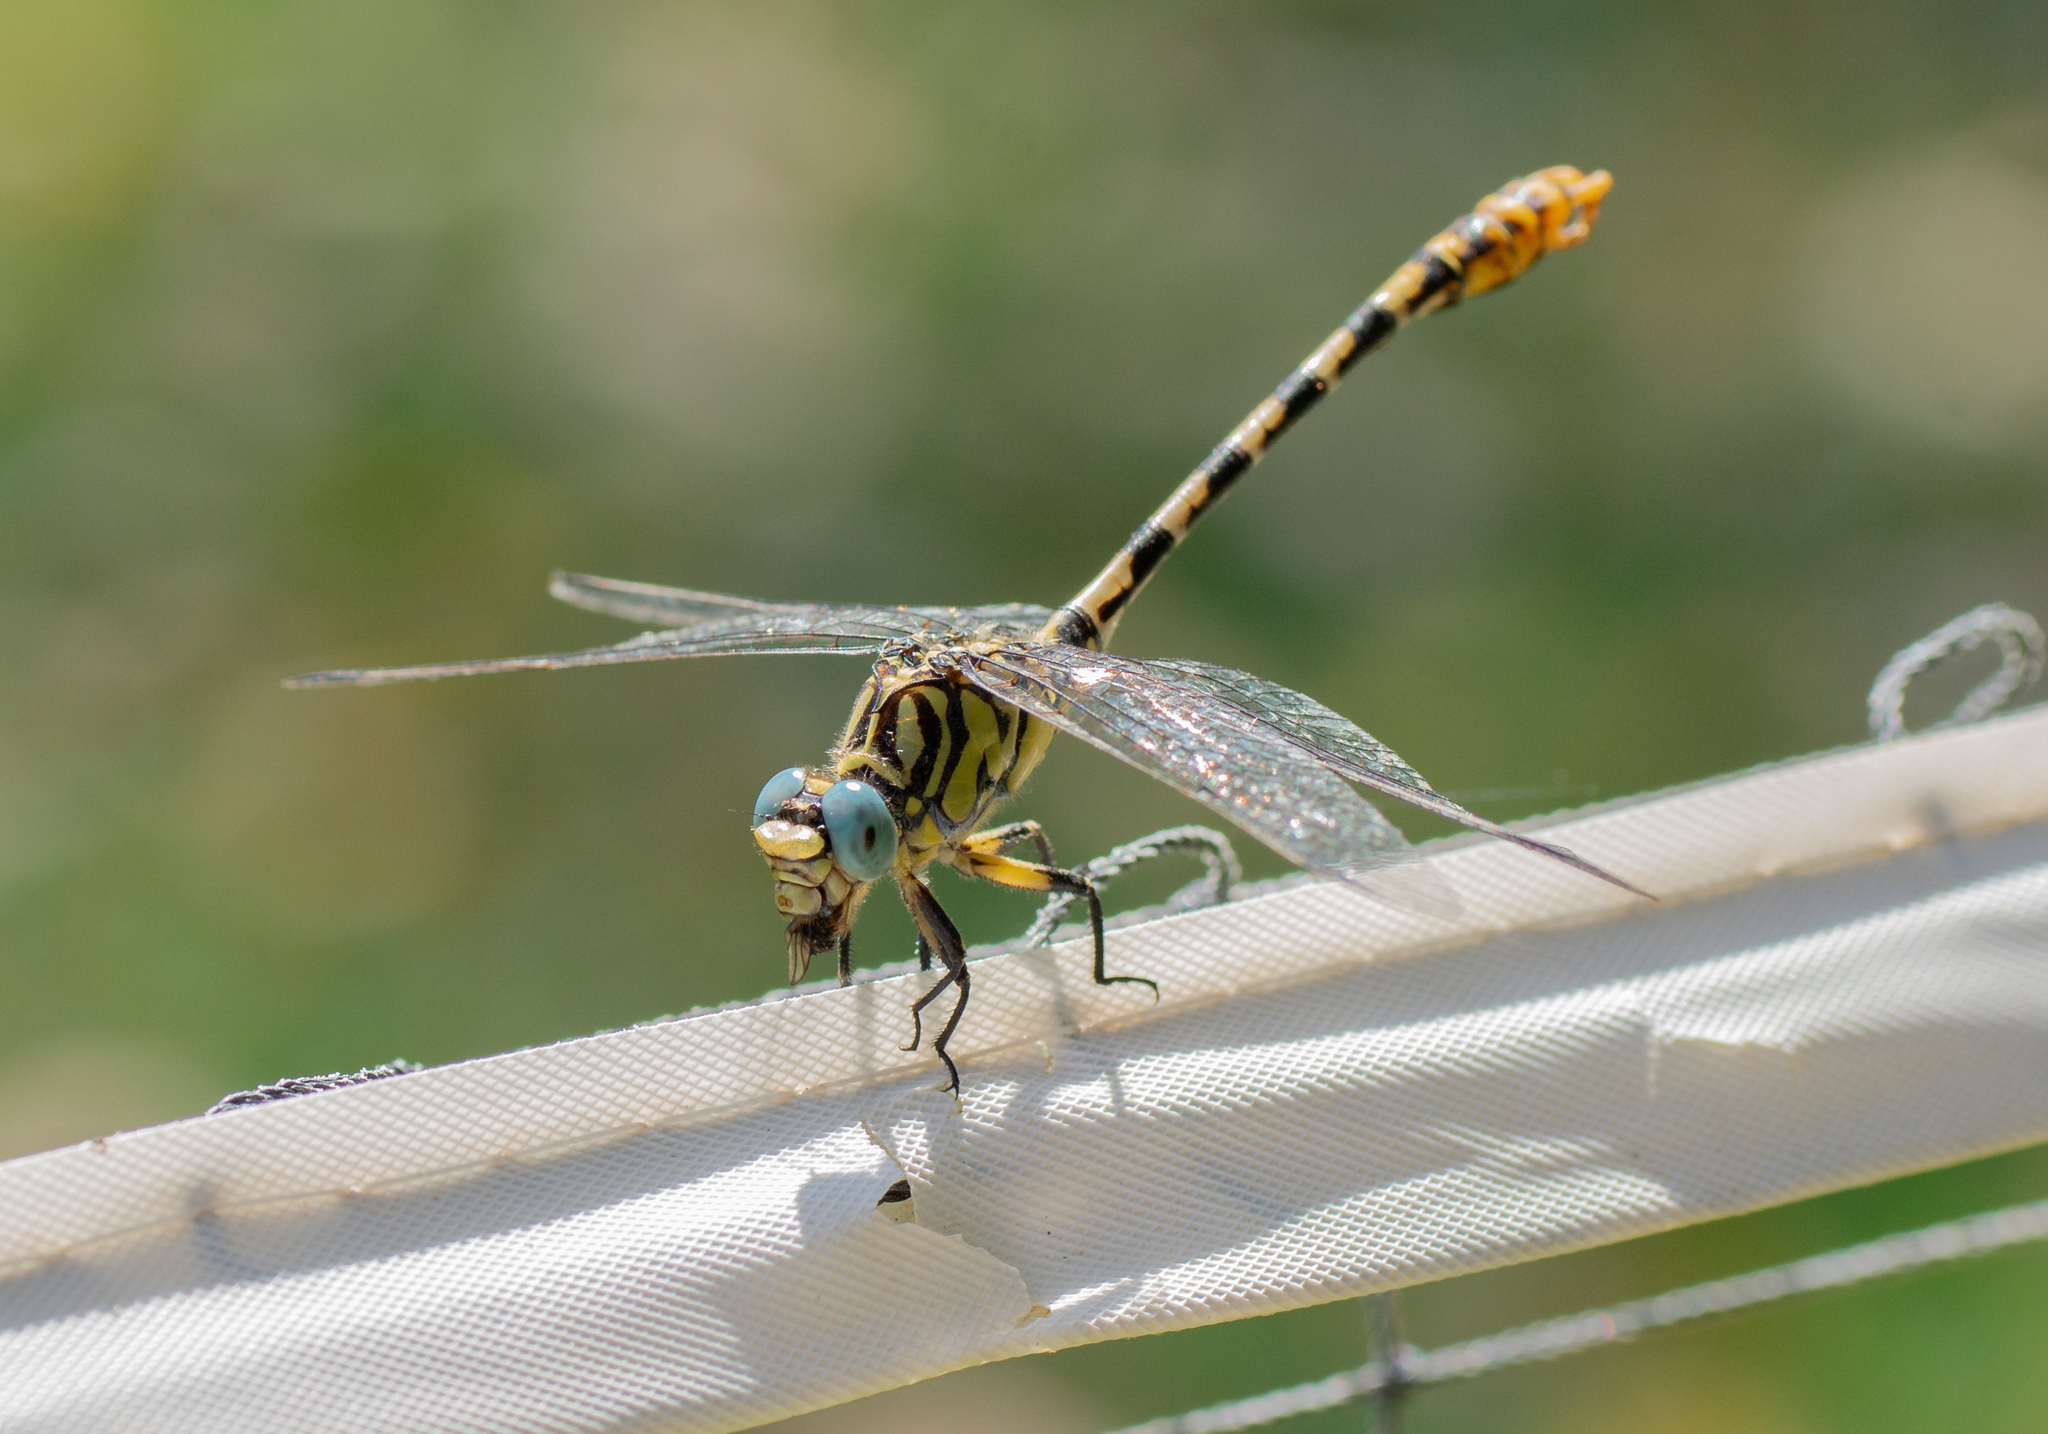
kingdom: Animalia
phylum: Arthropoda
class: Insecta
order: Odonata
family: Gomphidae
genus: Onychogomphus
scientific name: Onychogomphus forcipatus
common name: Small pincertail
